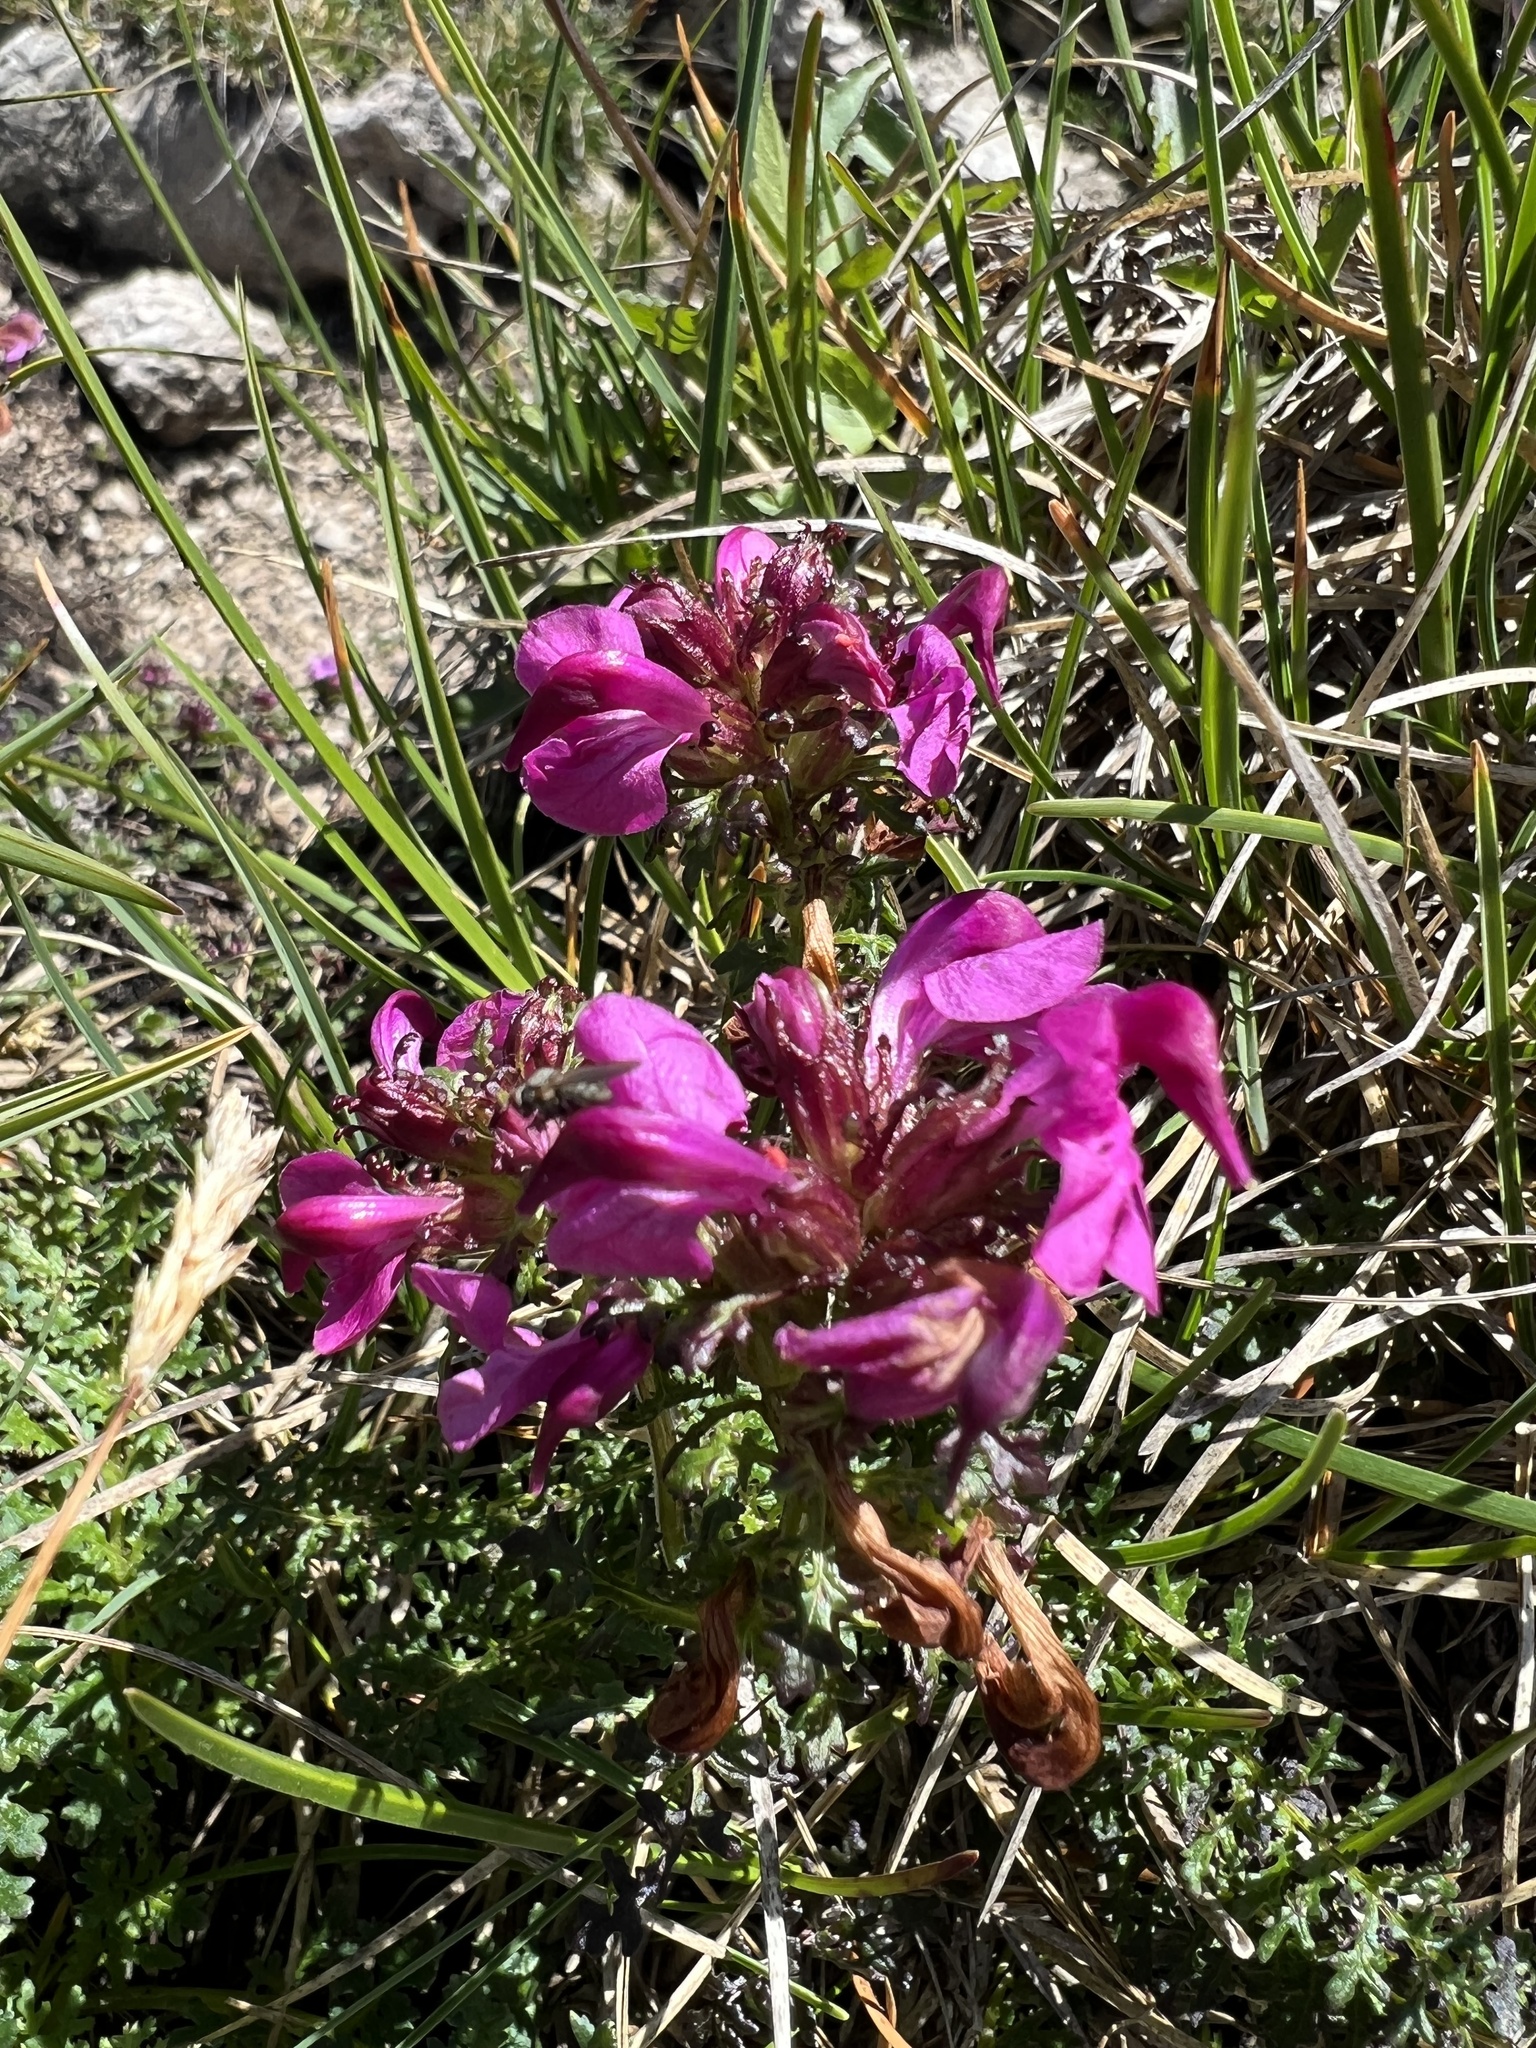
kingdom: Plantae
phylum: Tracheophyta
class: Magnoliopsida
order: Lamiales
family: Orobanchaceae
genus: Pedicularis
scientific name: Pedicularis rostratocapitata
